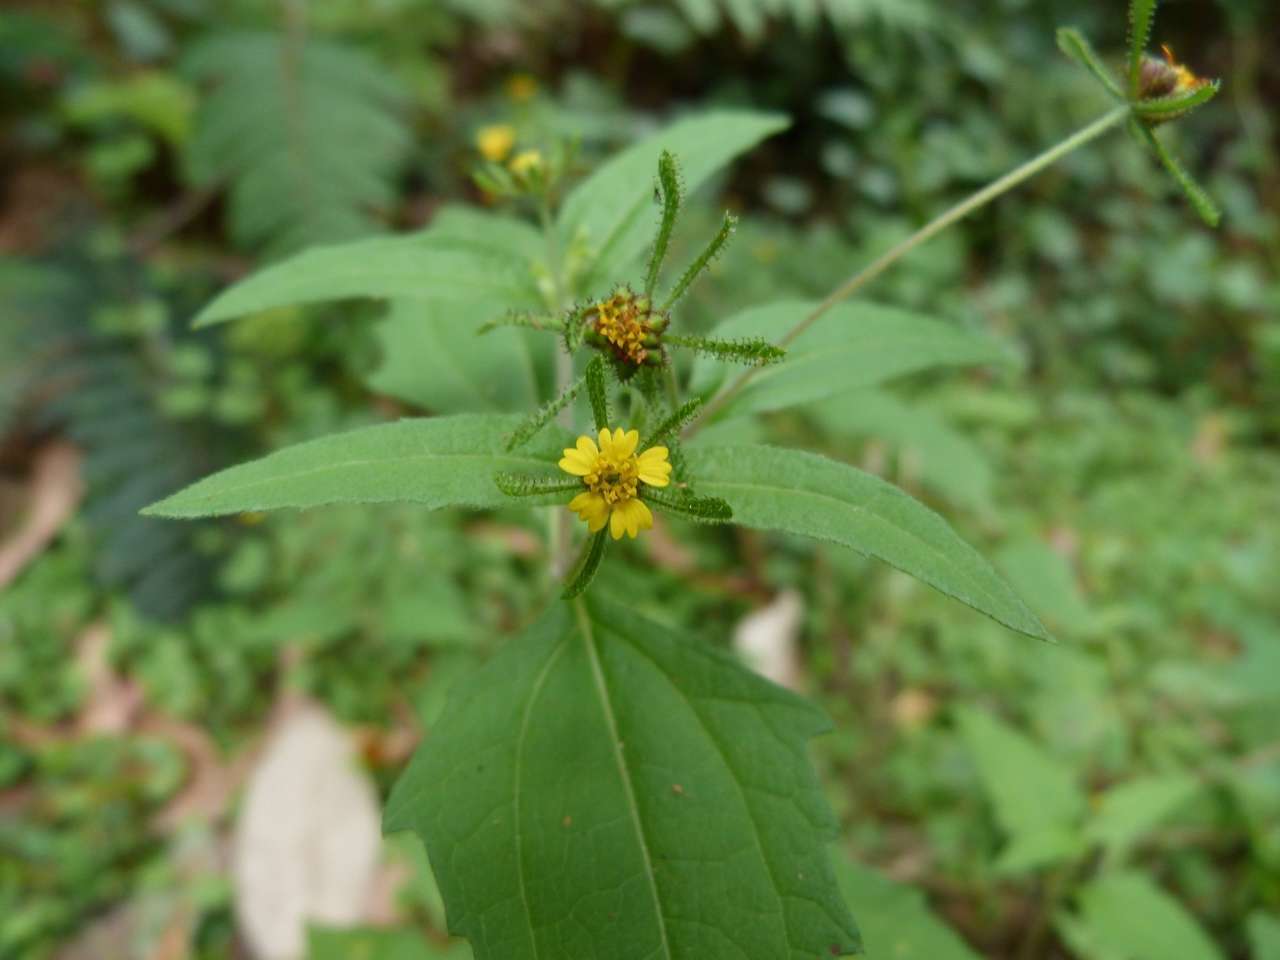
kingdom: Plantae
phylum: Tracheophyta
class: Magnoliopsida
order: Asterales
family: Asteraceae
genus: Sigesbeckia
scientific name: Sigesbeckia orientalis
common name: Eastern st paul's-wort
